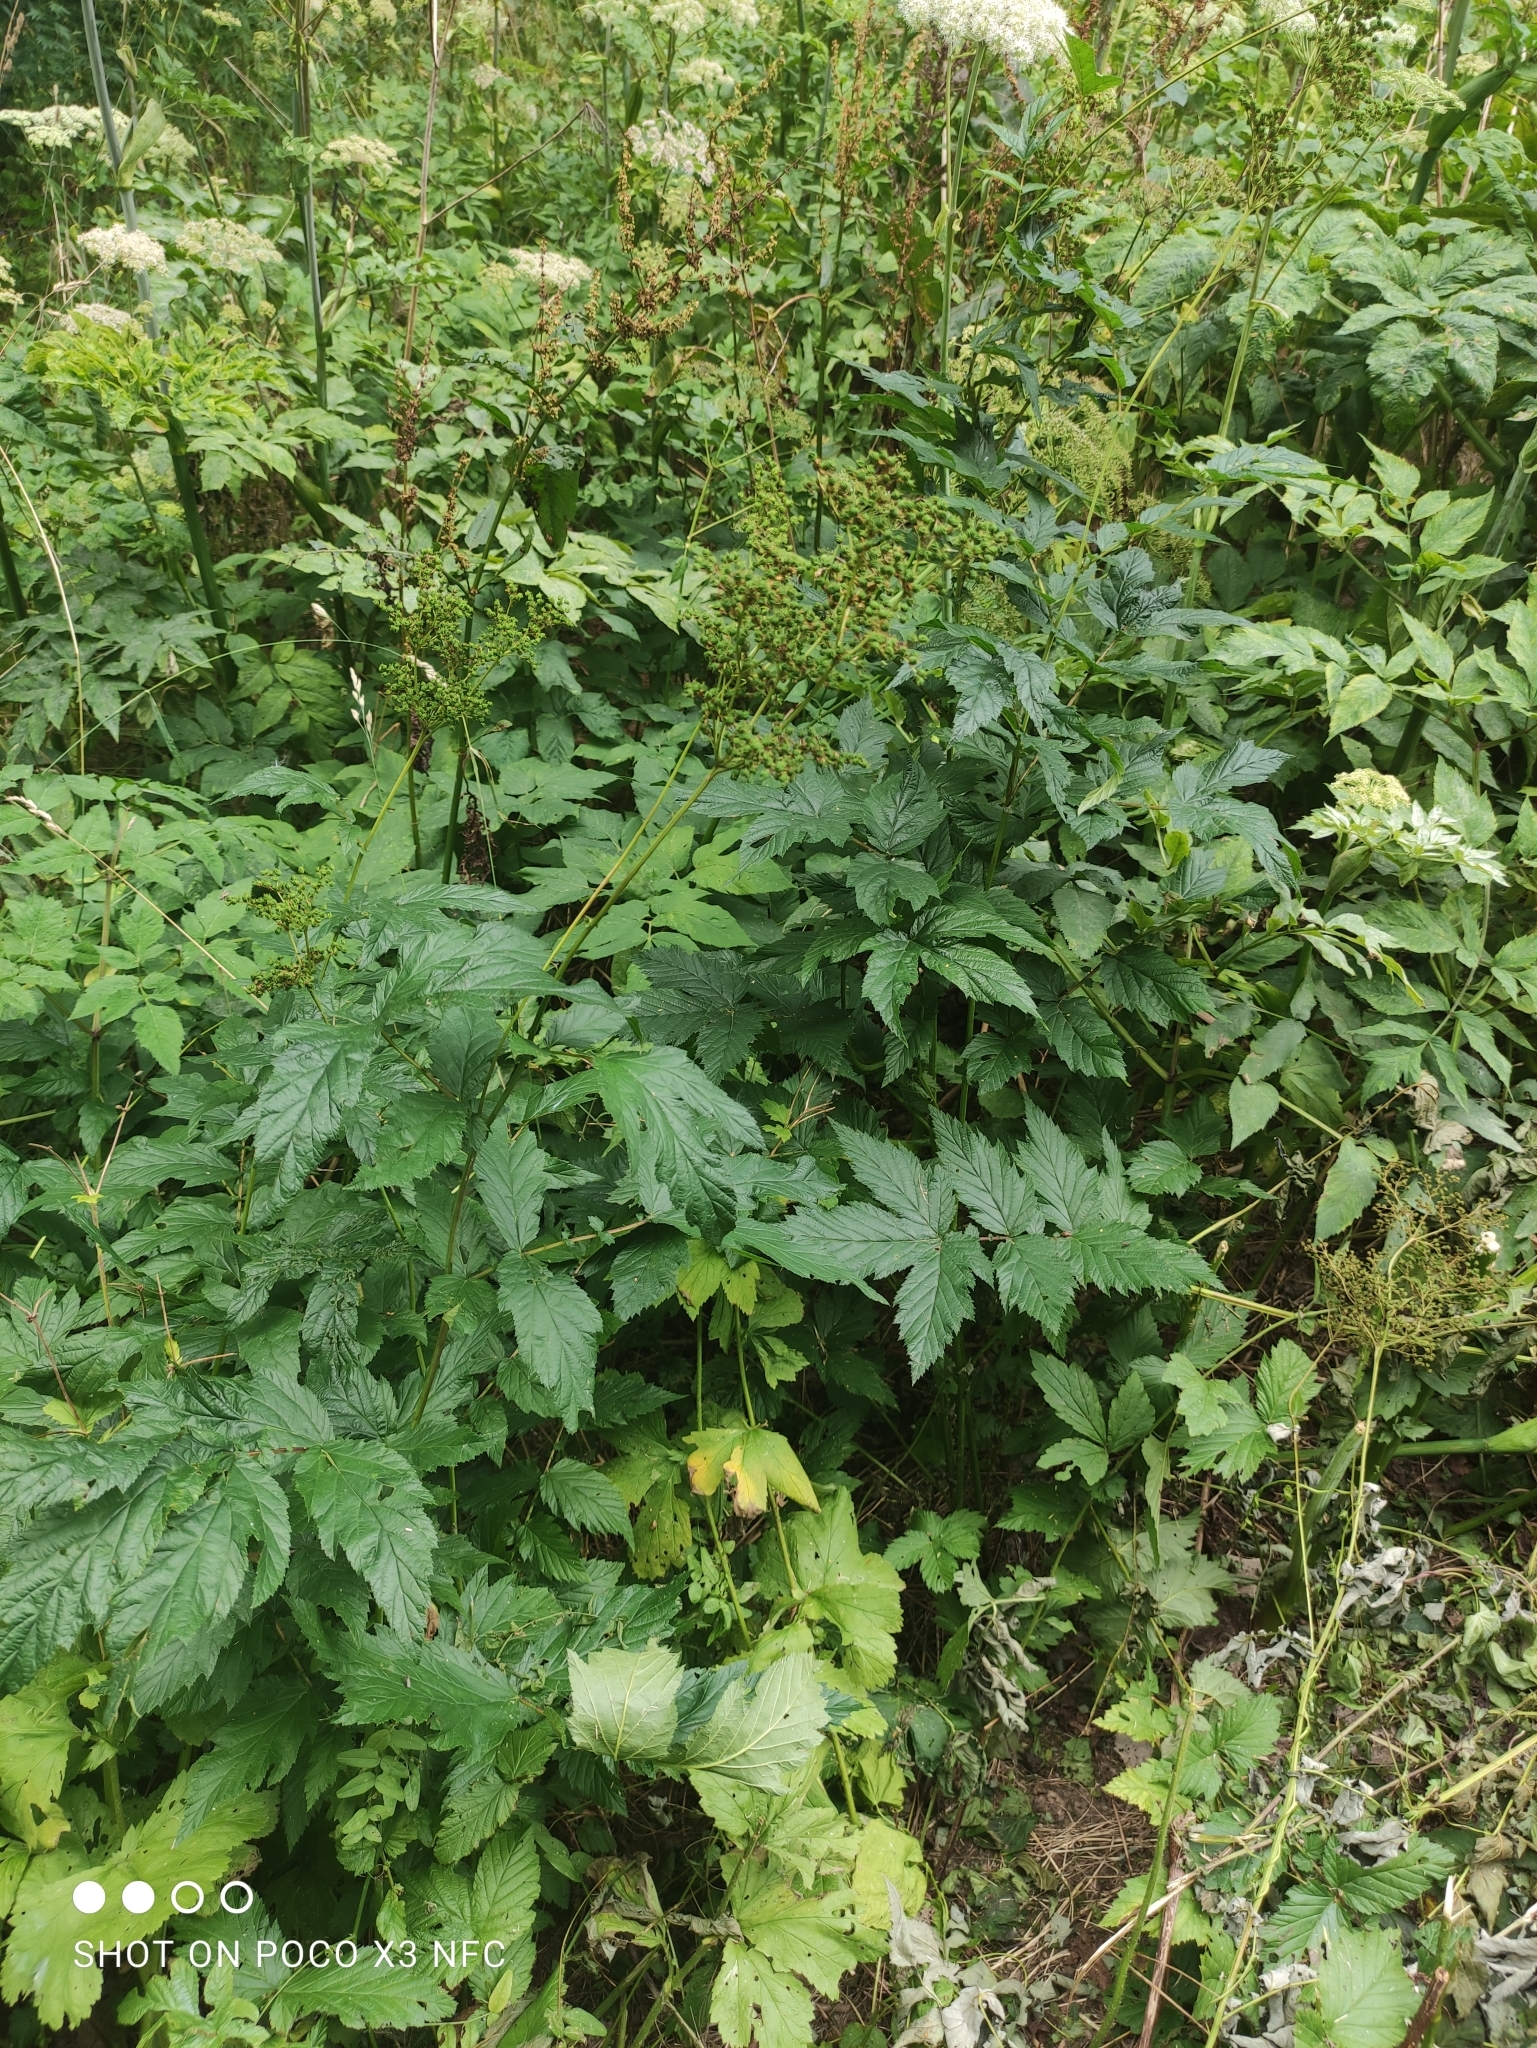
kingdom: Plantae
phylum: Tracheophyta
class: Magnoliopsida
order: Rosales
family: Rosaceae
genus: Filipendula
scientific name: Filipendula ulmaria
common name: Meadowsweet
